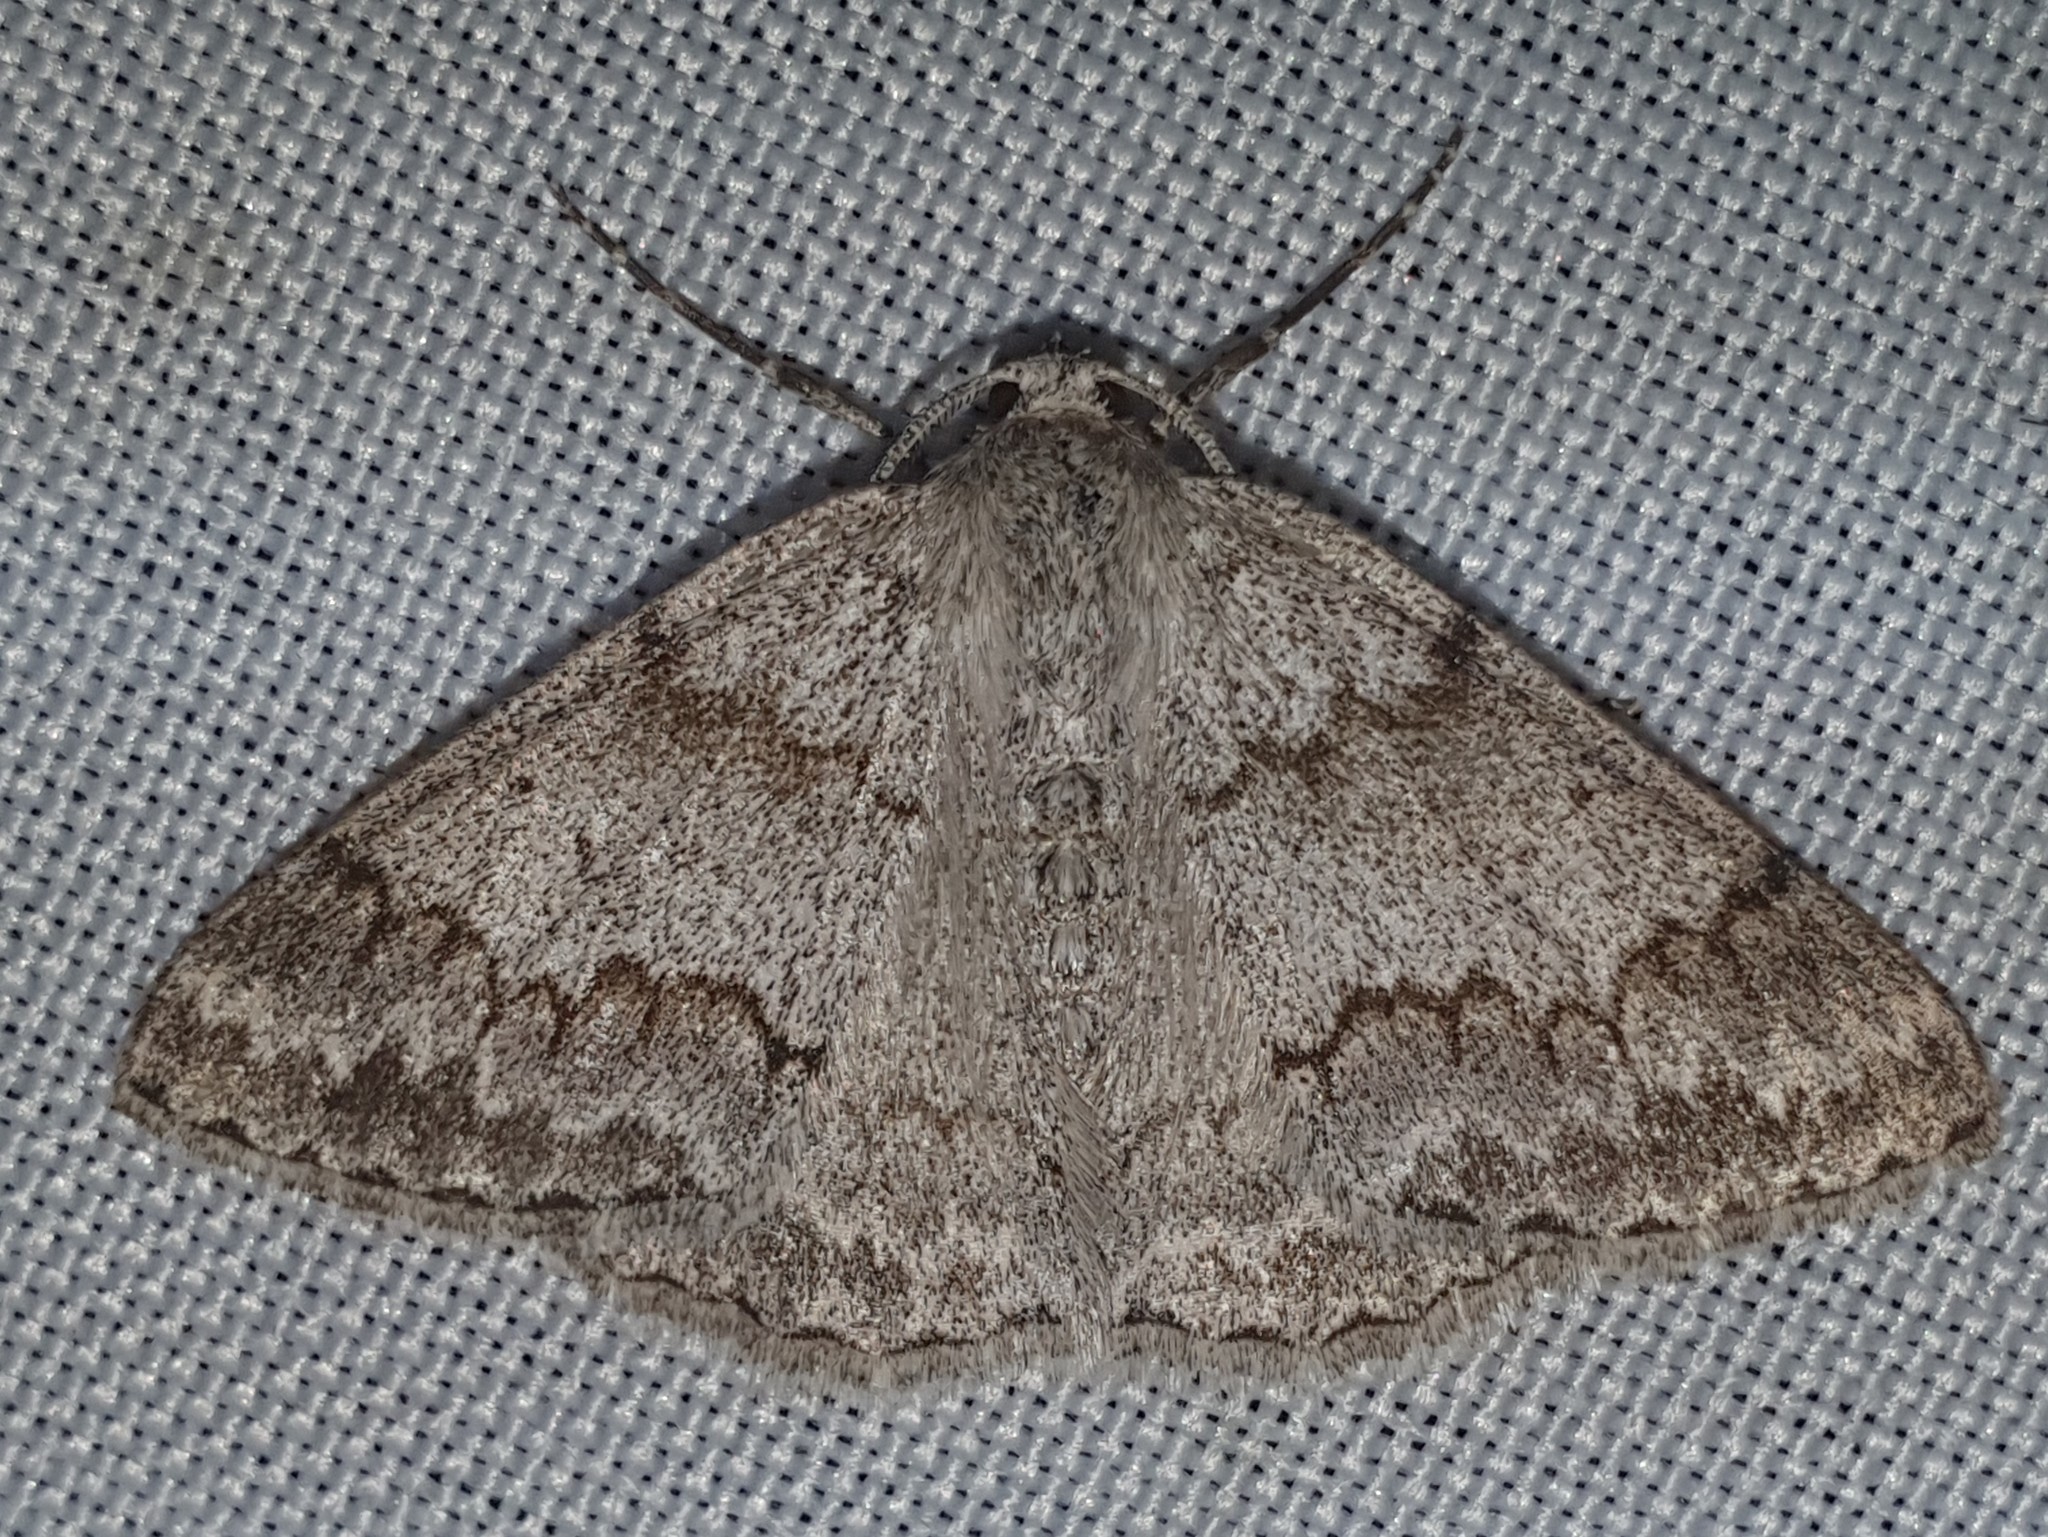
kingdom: Animalia
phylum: Arthropoda
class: Insecta
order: Lepidoptera
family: Geometridae
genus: Pseudoterpna
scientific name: Pseudoterpna coronillaria
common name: Jersey emerald
